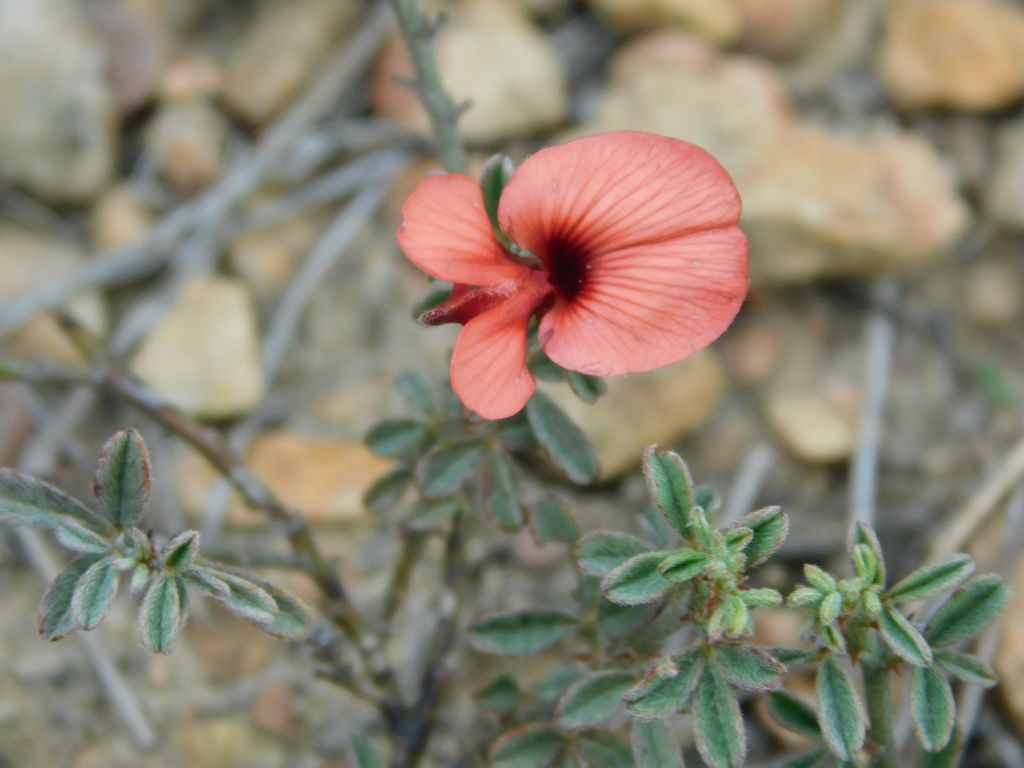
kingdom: Plantae
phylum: Tracheophyta
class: Magnoliopsida
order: Fabales
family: Fabaceae
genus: Indigofera
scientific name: Indigofera priorii
